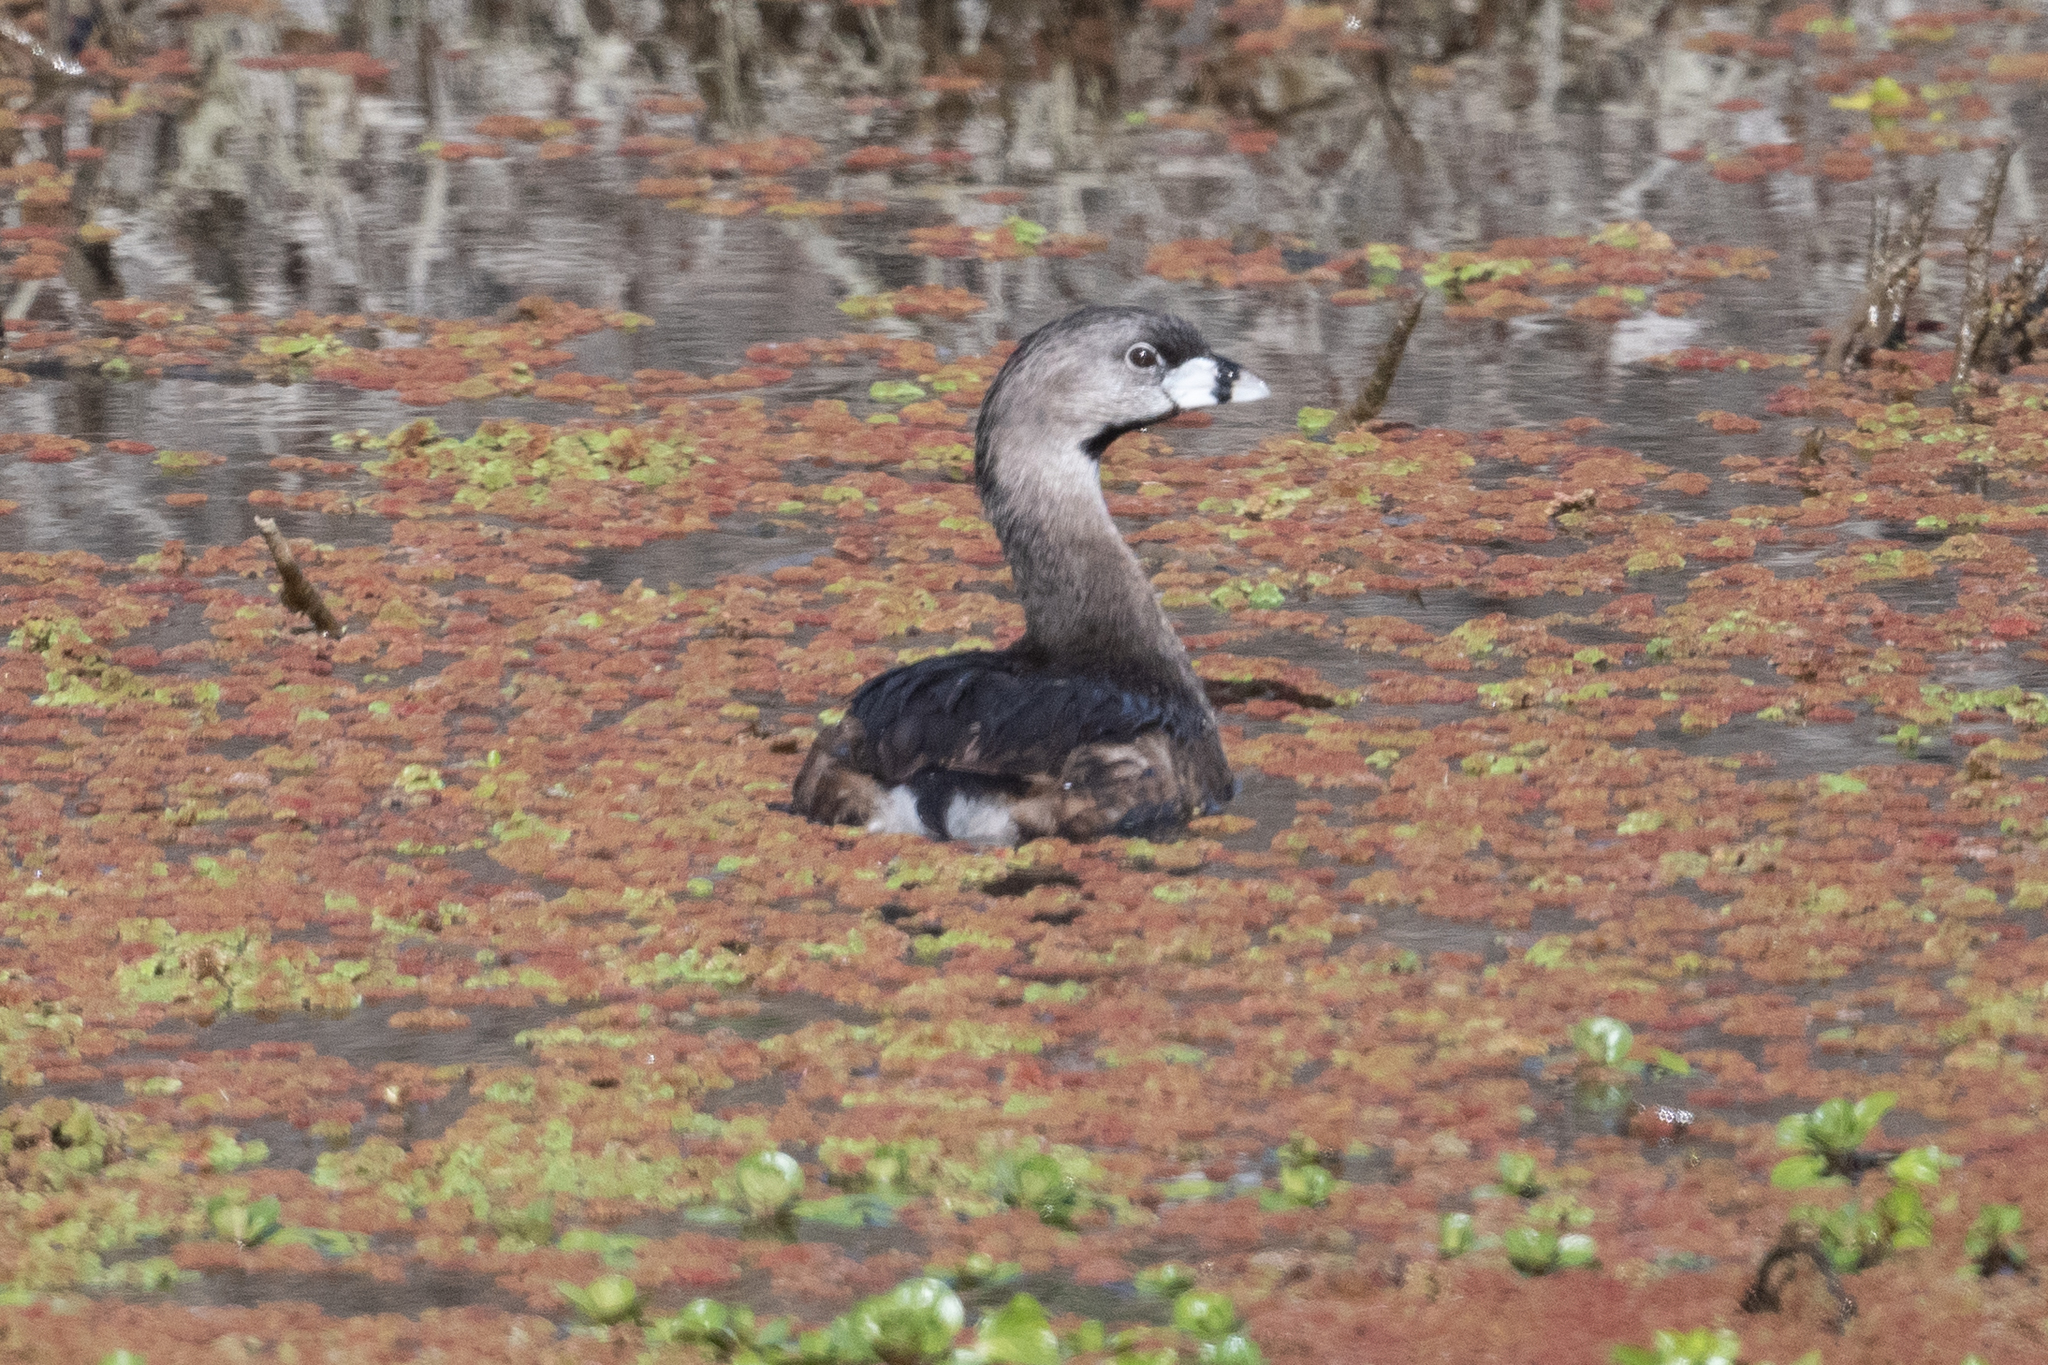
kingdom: Animalia
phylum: Chordata
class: Aves
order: Podicipediformes
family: Podicipedidae
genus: Podilymbus
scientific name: Podilymbus podiceps
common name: Pied-billed grebe
